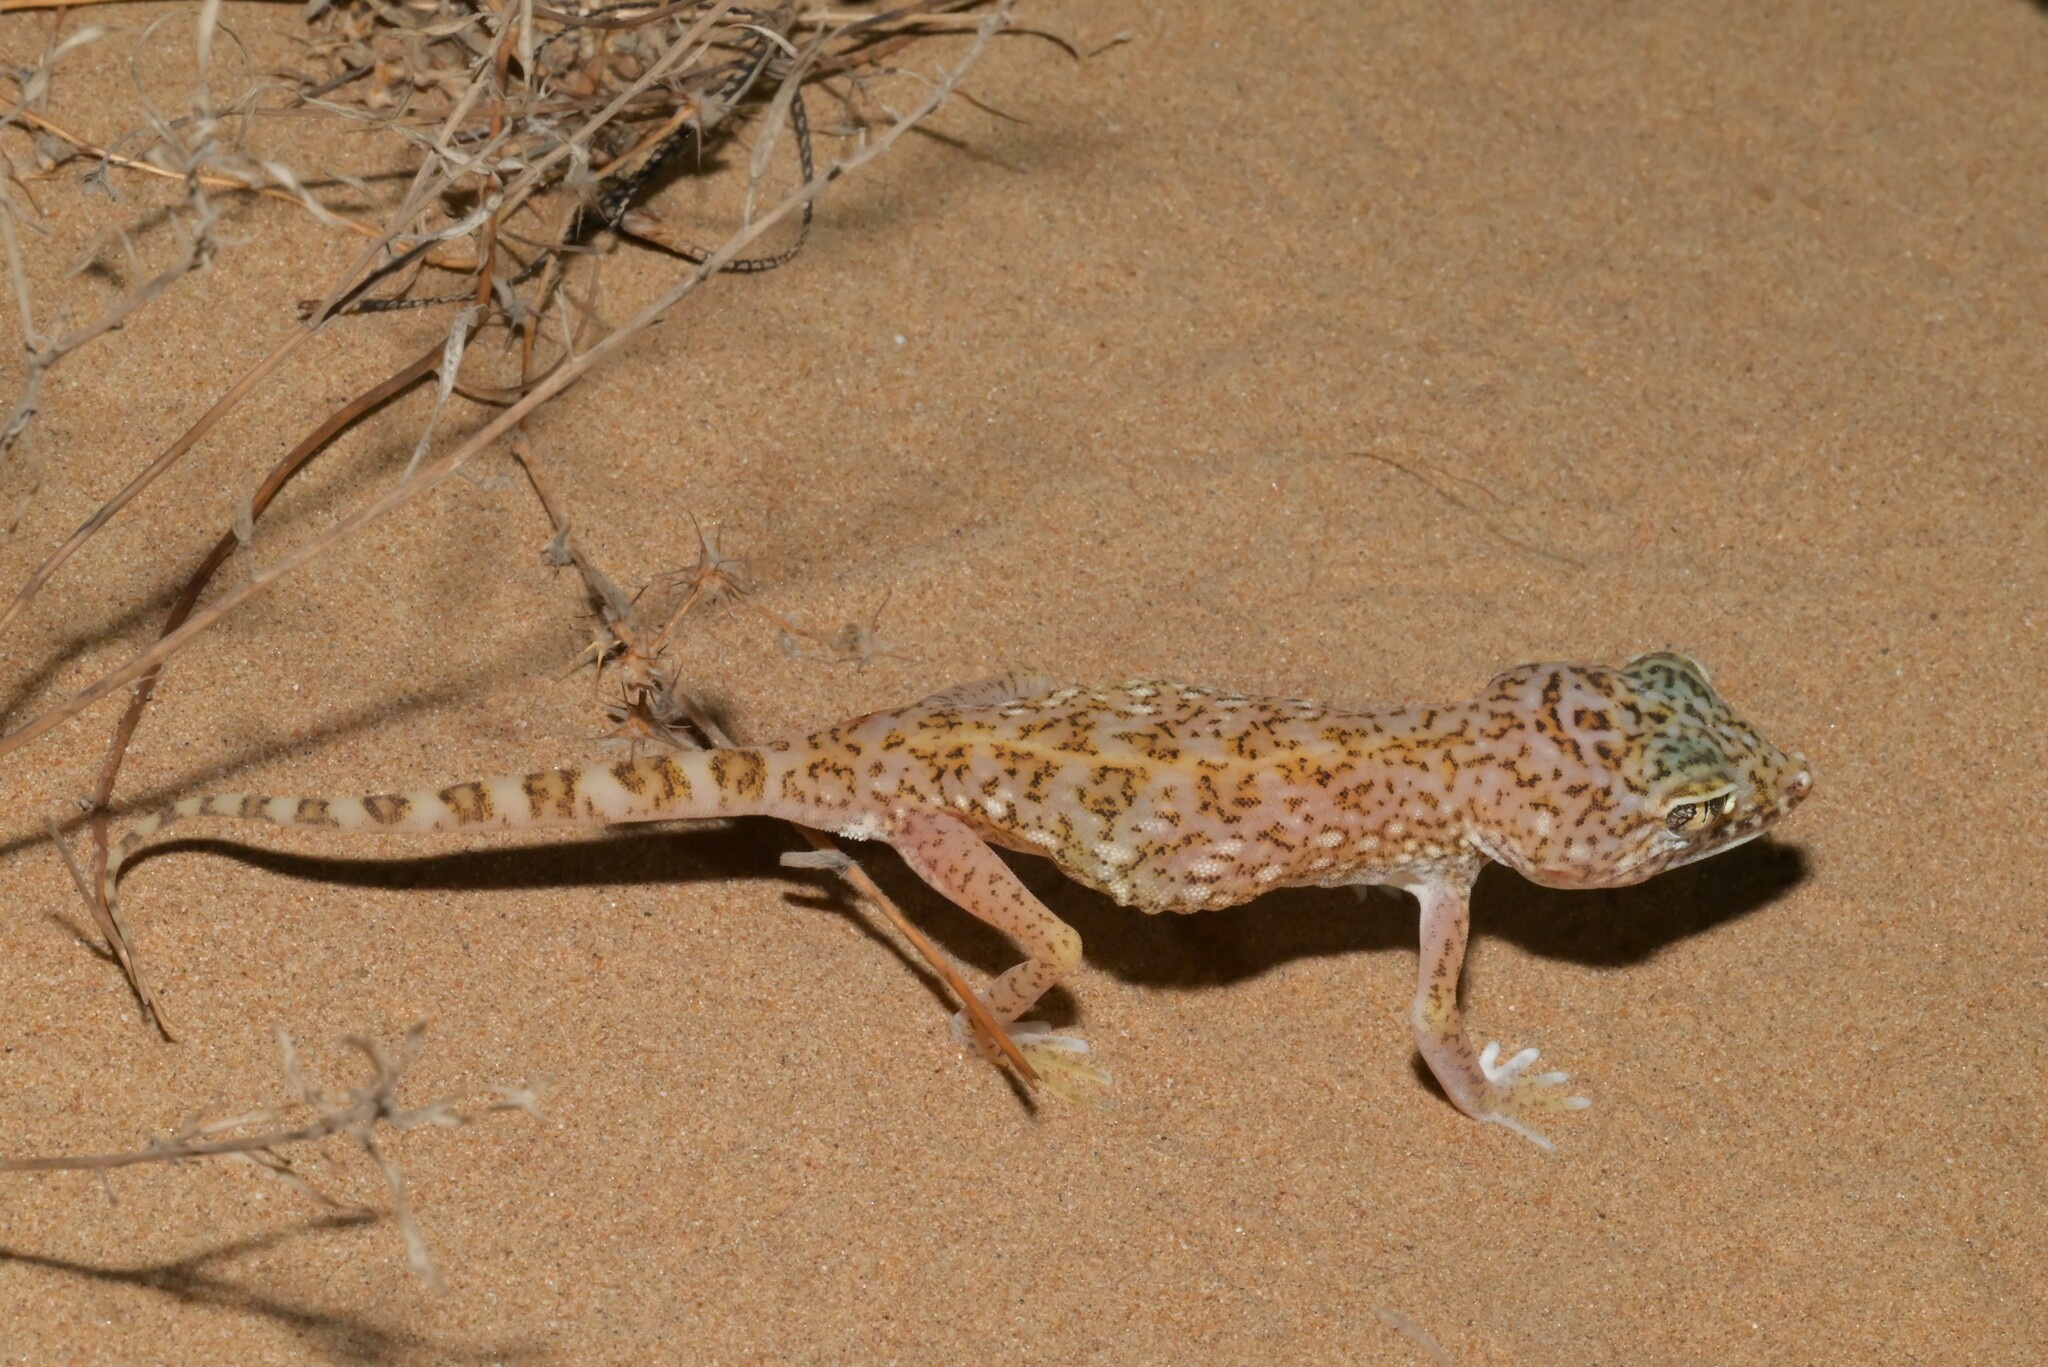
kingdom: Animalia
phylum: Chordata
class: Squamata
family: Gekkonidae
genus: Stenodactylus
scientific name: Stenodactylus doriae
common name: Dune sand gecko
